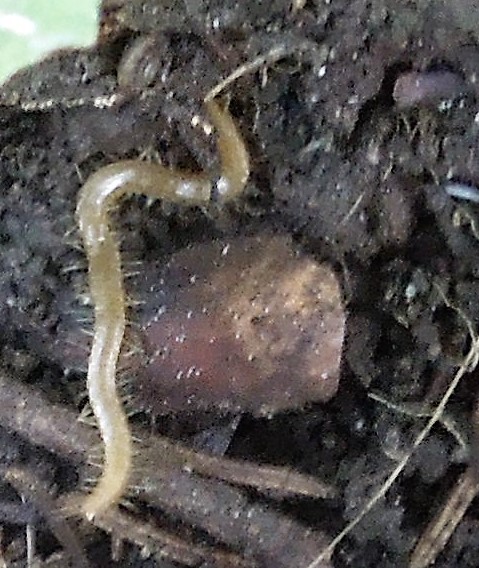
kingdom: Animalia
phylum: Arthropoda
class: Chilopoda
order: Geophilomorpha
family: Geophilidae
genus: Geophilus
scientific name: Geophilus
